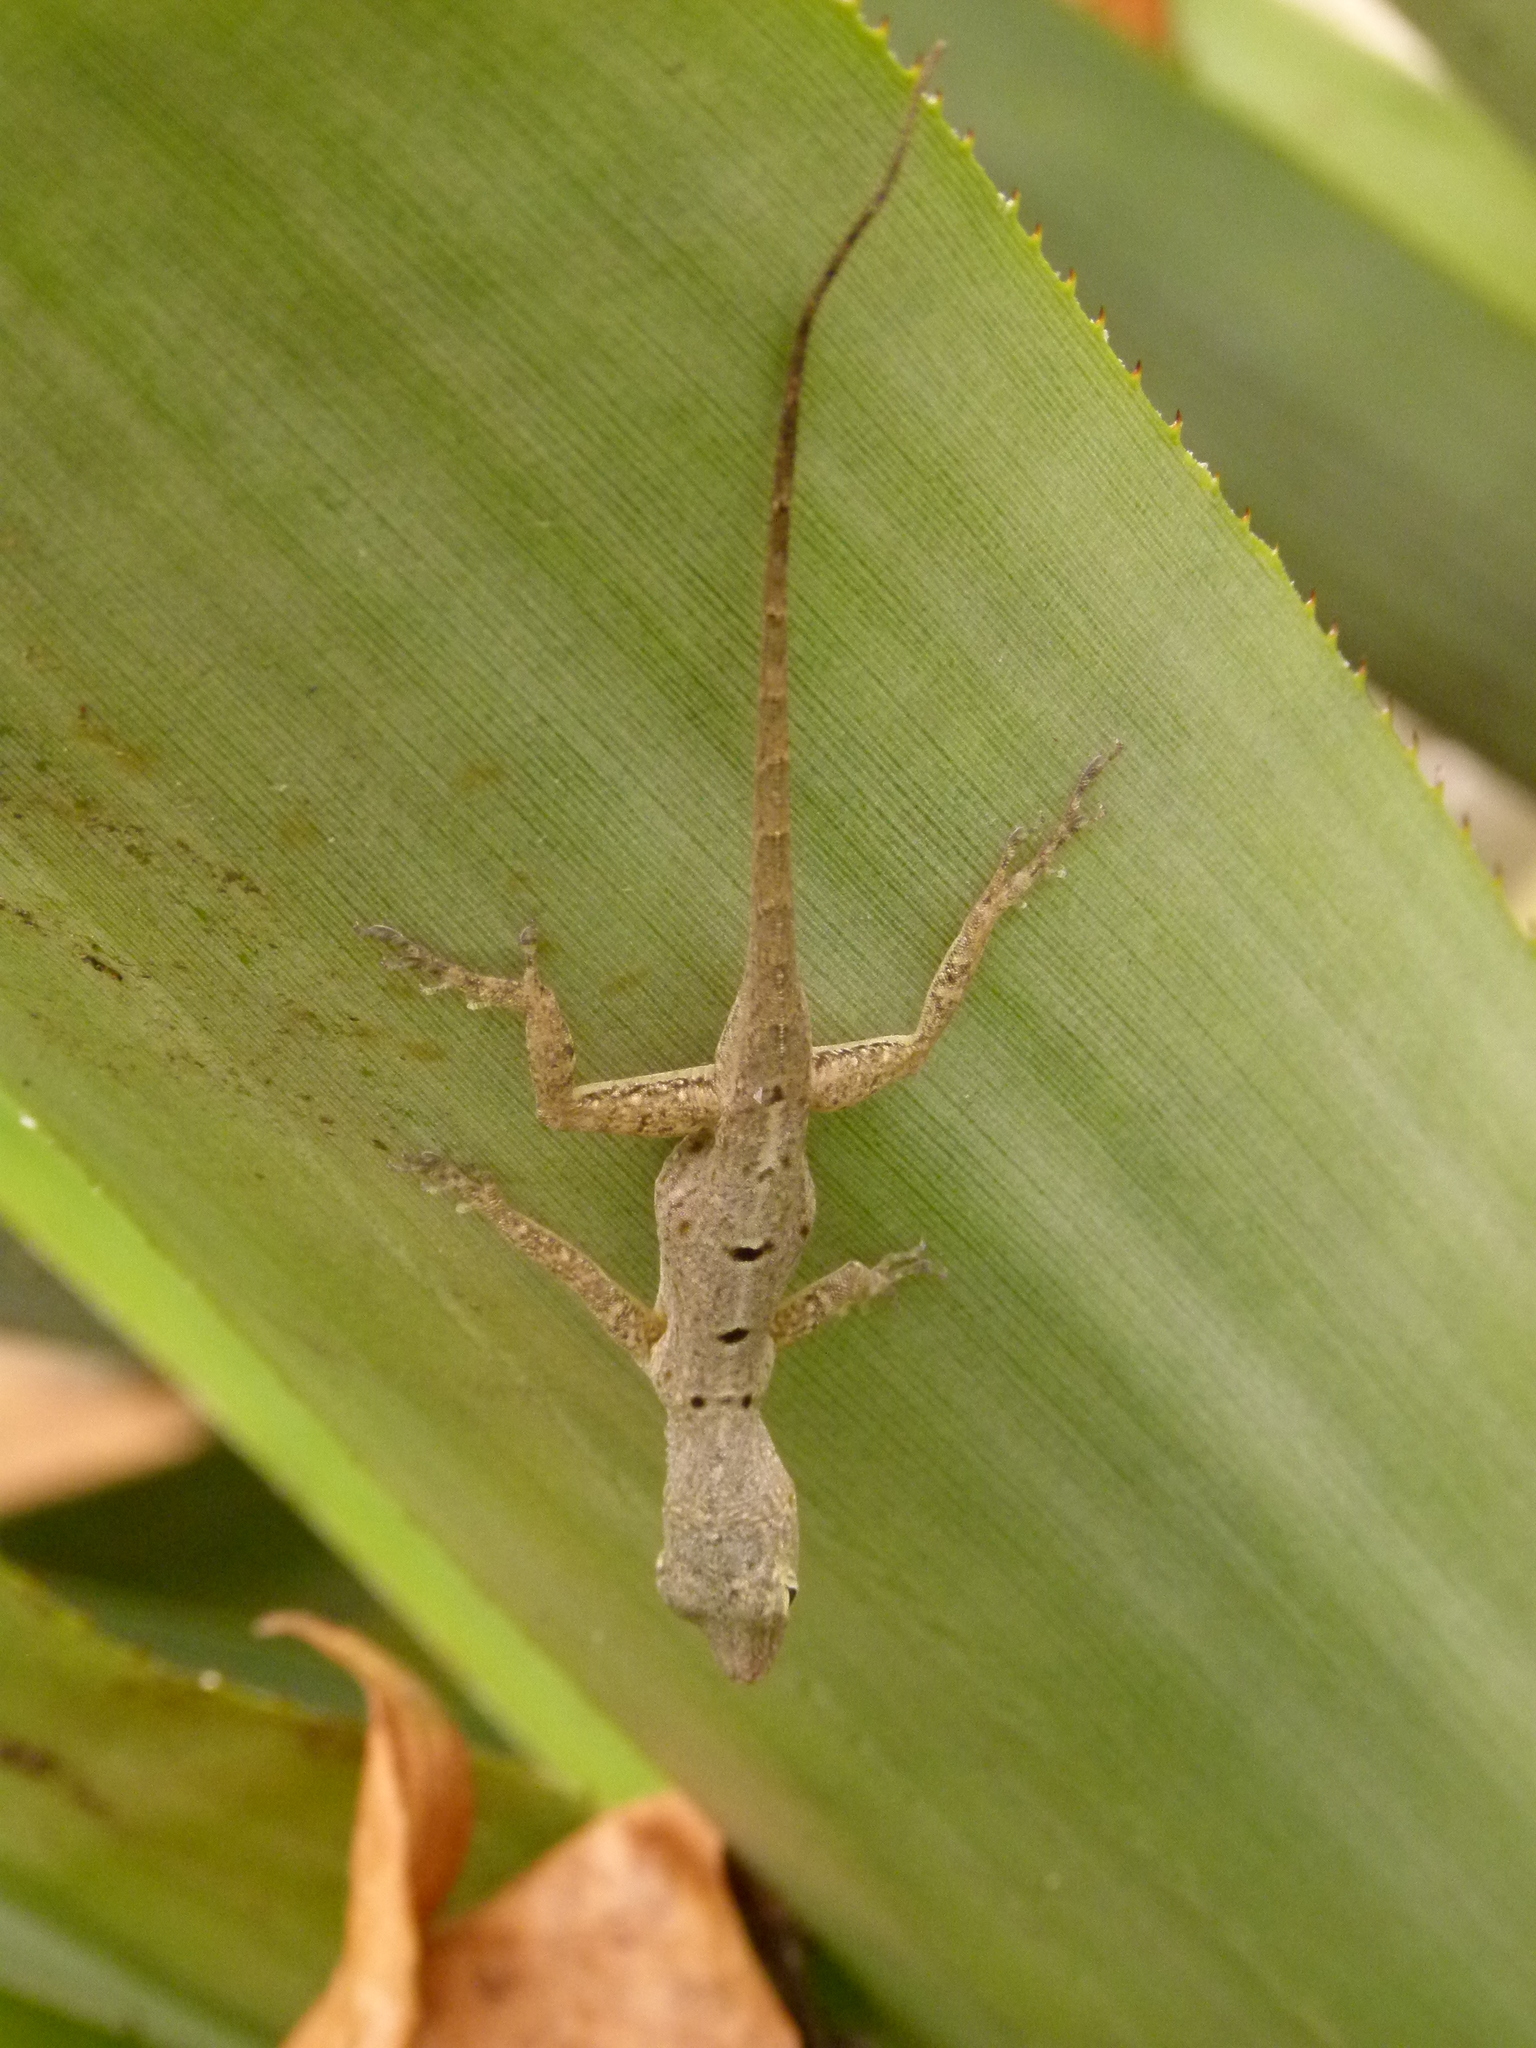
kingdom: Animalia
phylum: Chordata
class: Squamata
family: Dactyloidae
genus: Anolis
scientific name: Anolis stratulus
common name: Banded anole
